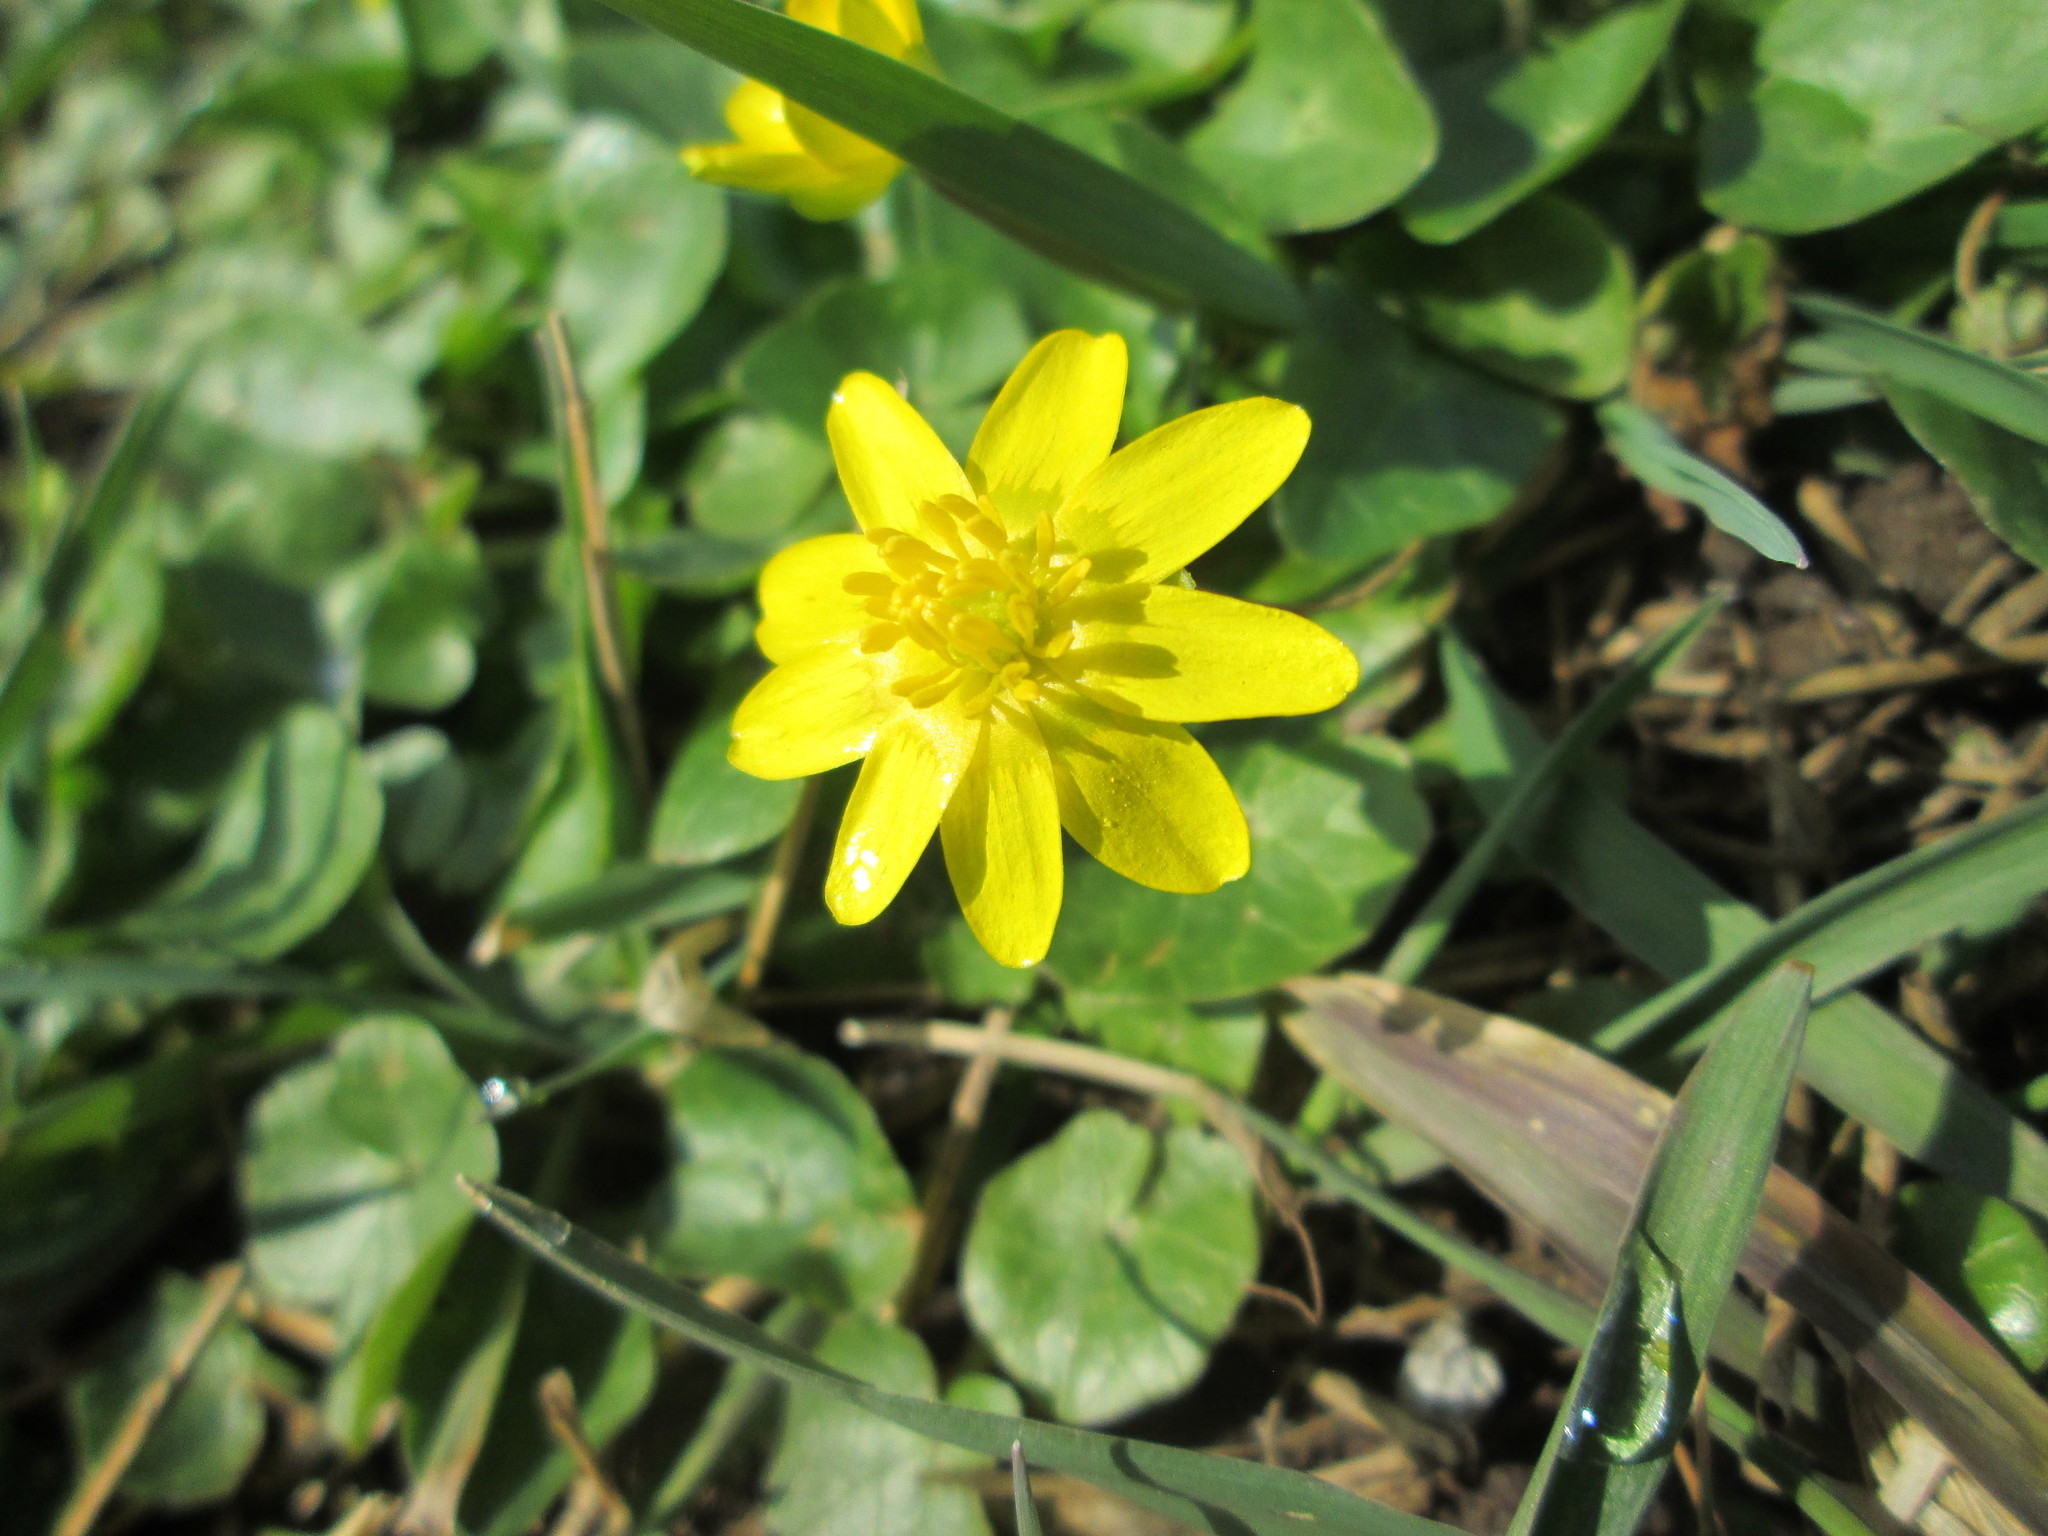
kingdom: Plantae
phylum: Tracheophyta
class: Magnoliopsida
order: Ranunculales
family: Ranunculaceae
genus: Ficaria
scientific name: Ficaria verna
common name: Lesser celandine
